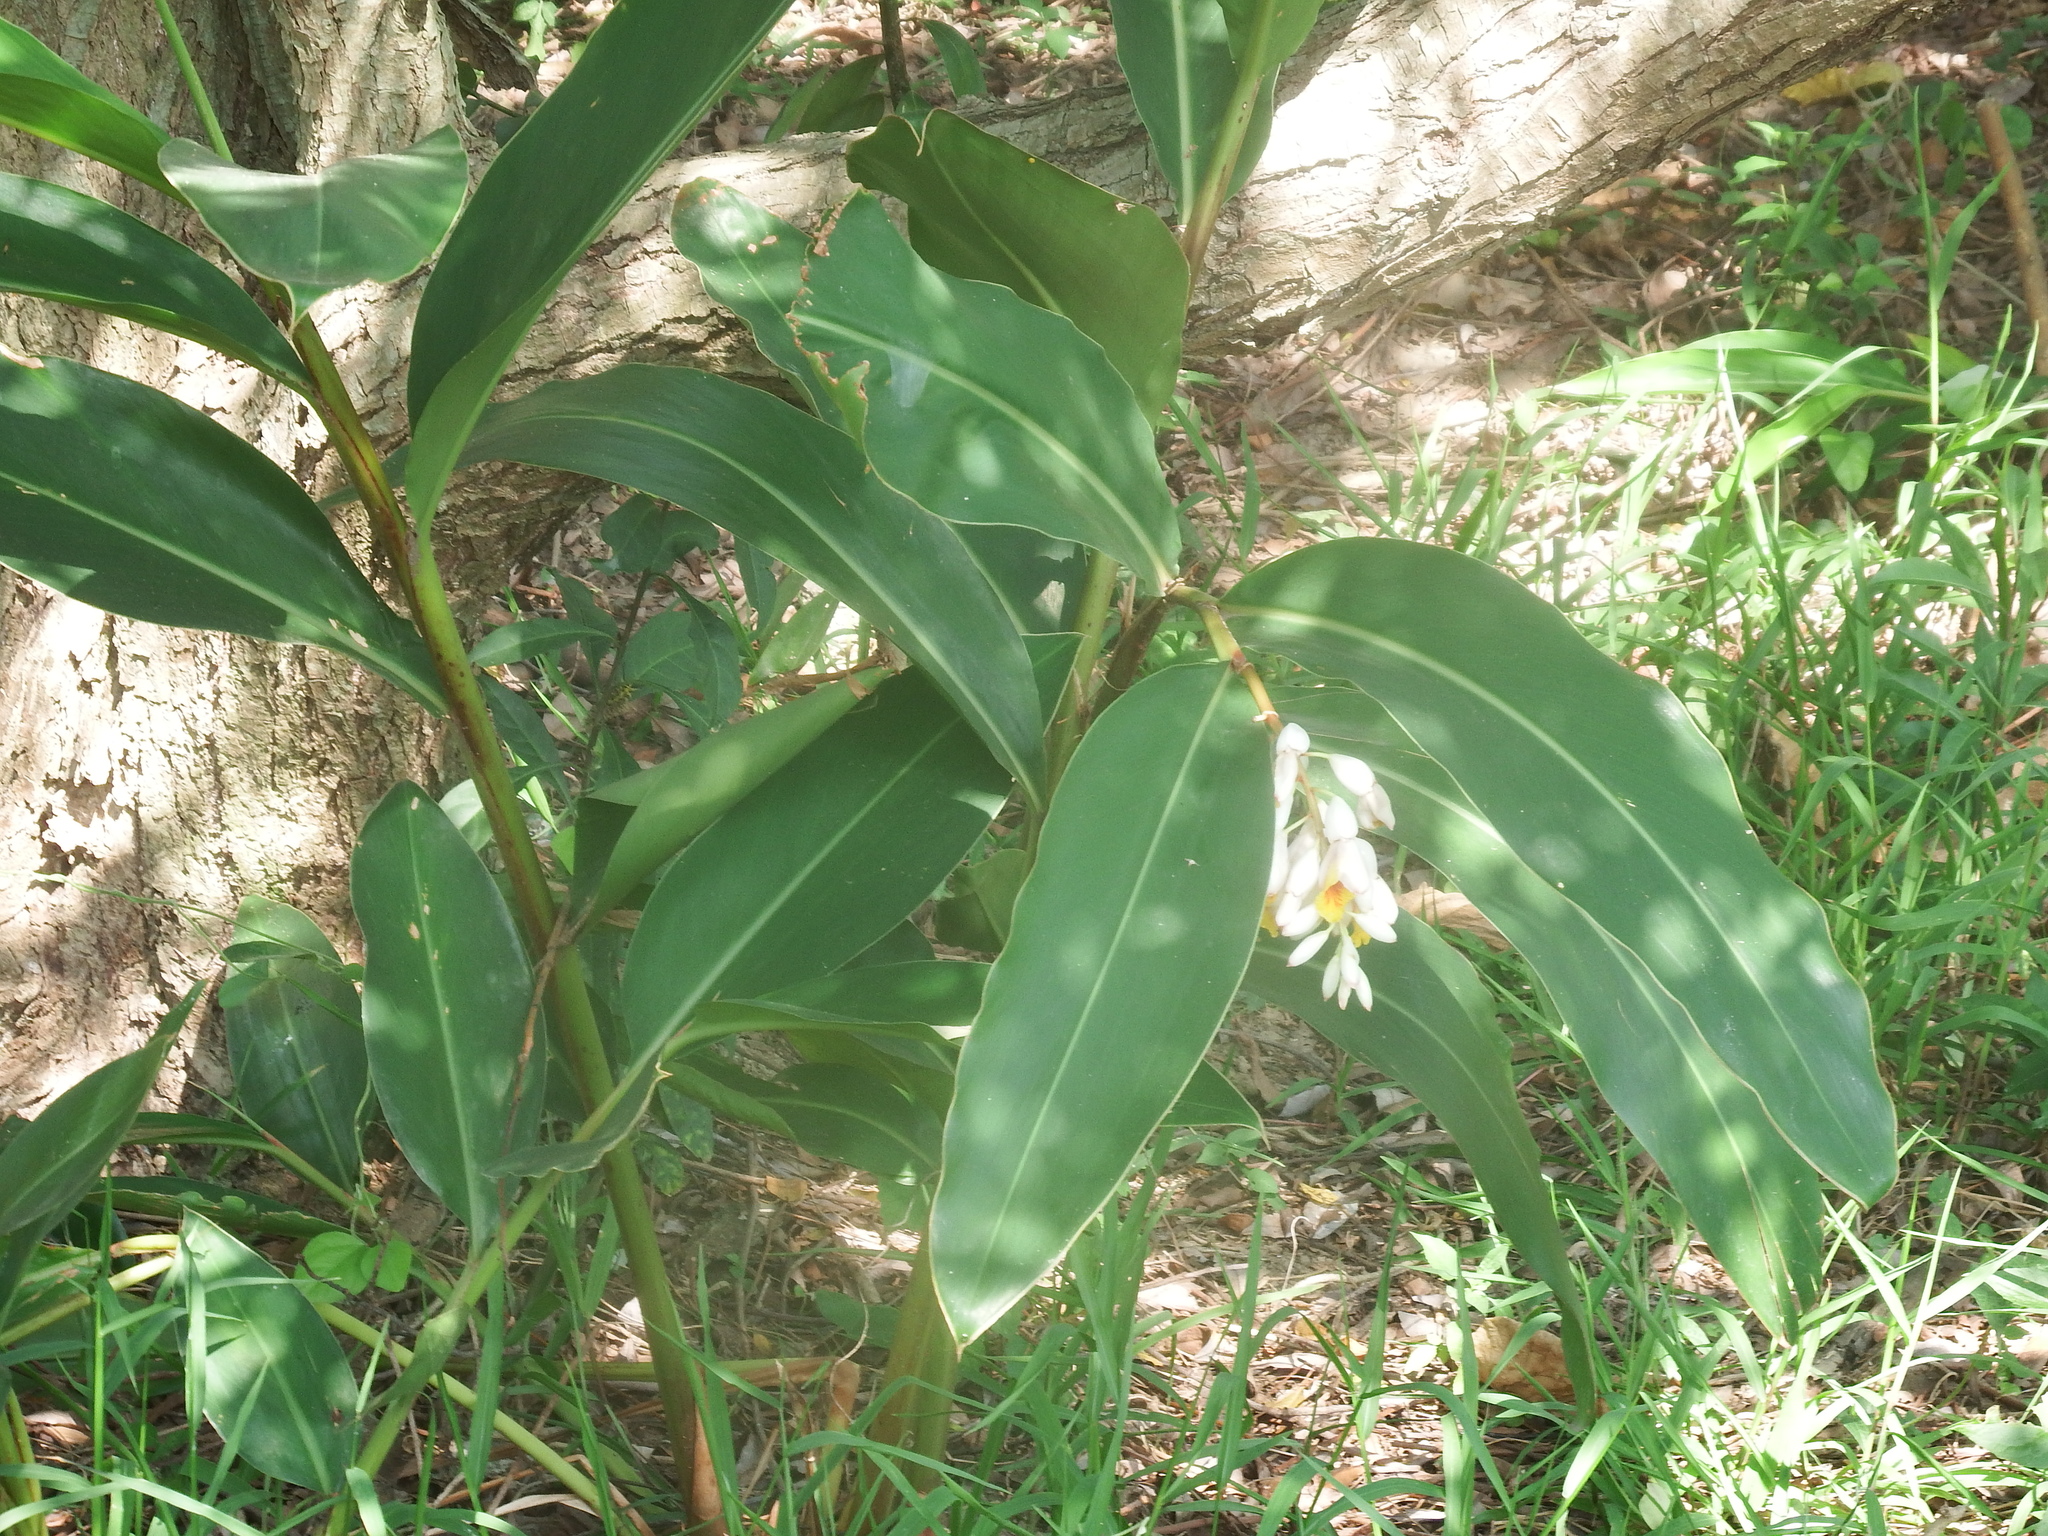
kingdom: Plantae
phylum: Tracheophyta
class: Liliopsida
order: Zingiberales
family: Zingiberaceae
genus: Alpinia
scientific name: Alpinia zerumbet
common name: Shellplant
